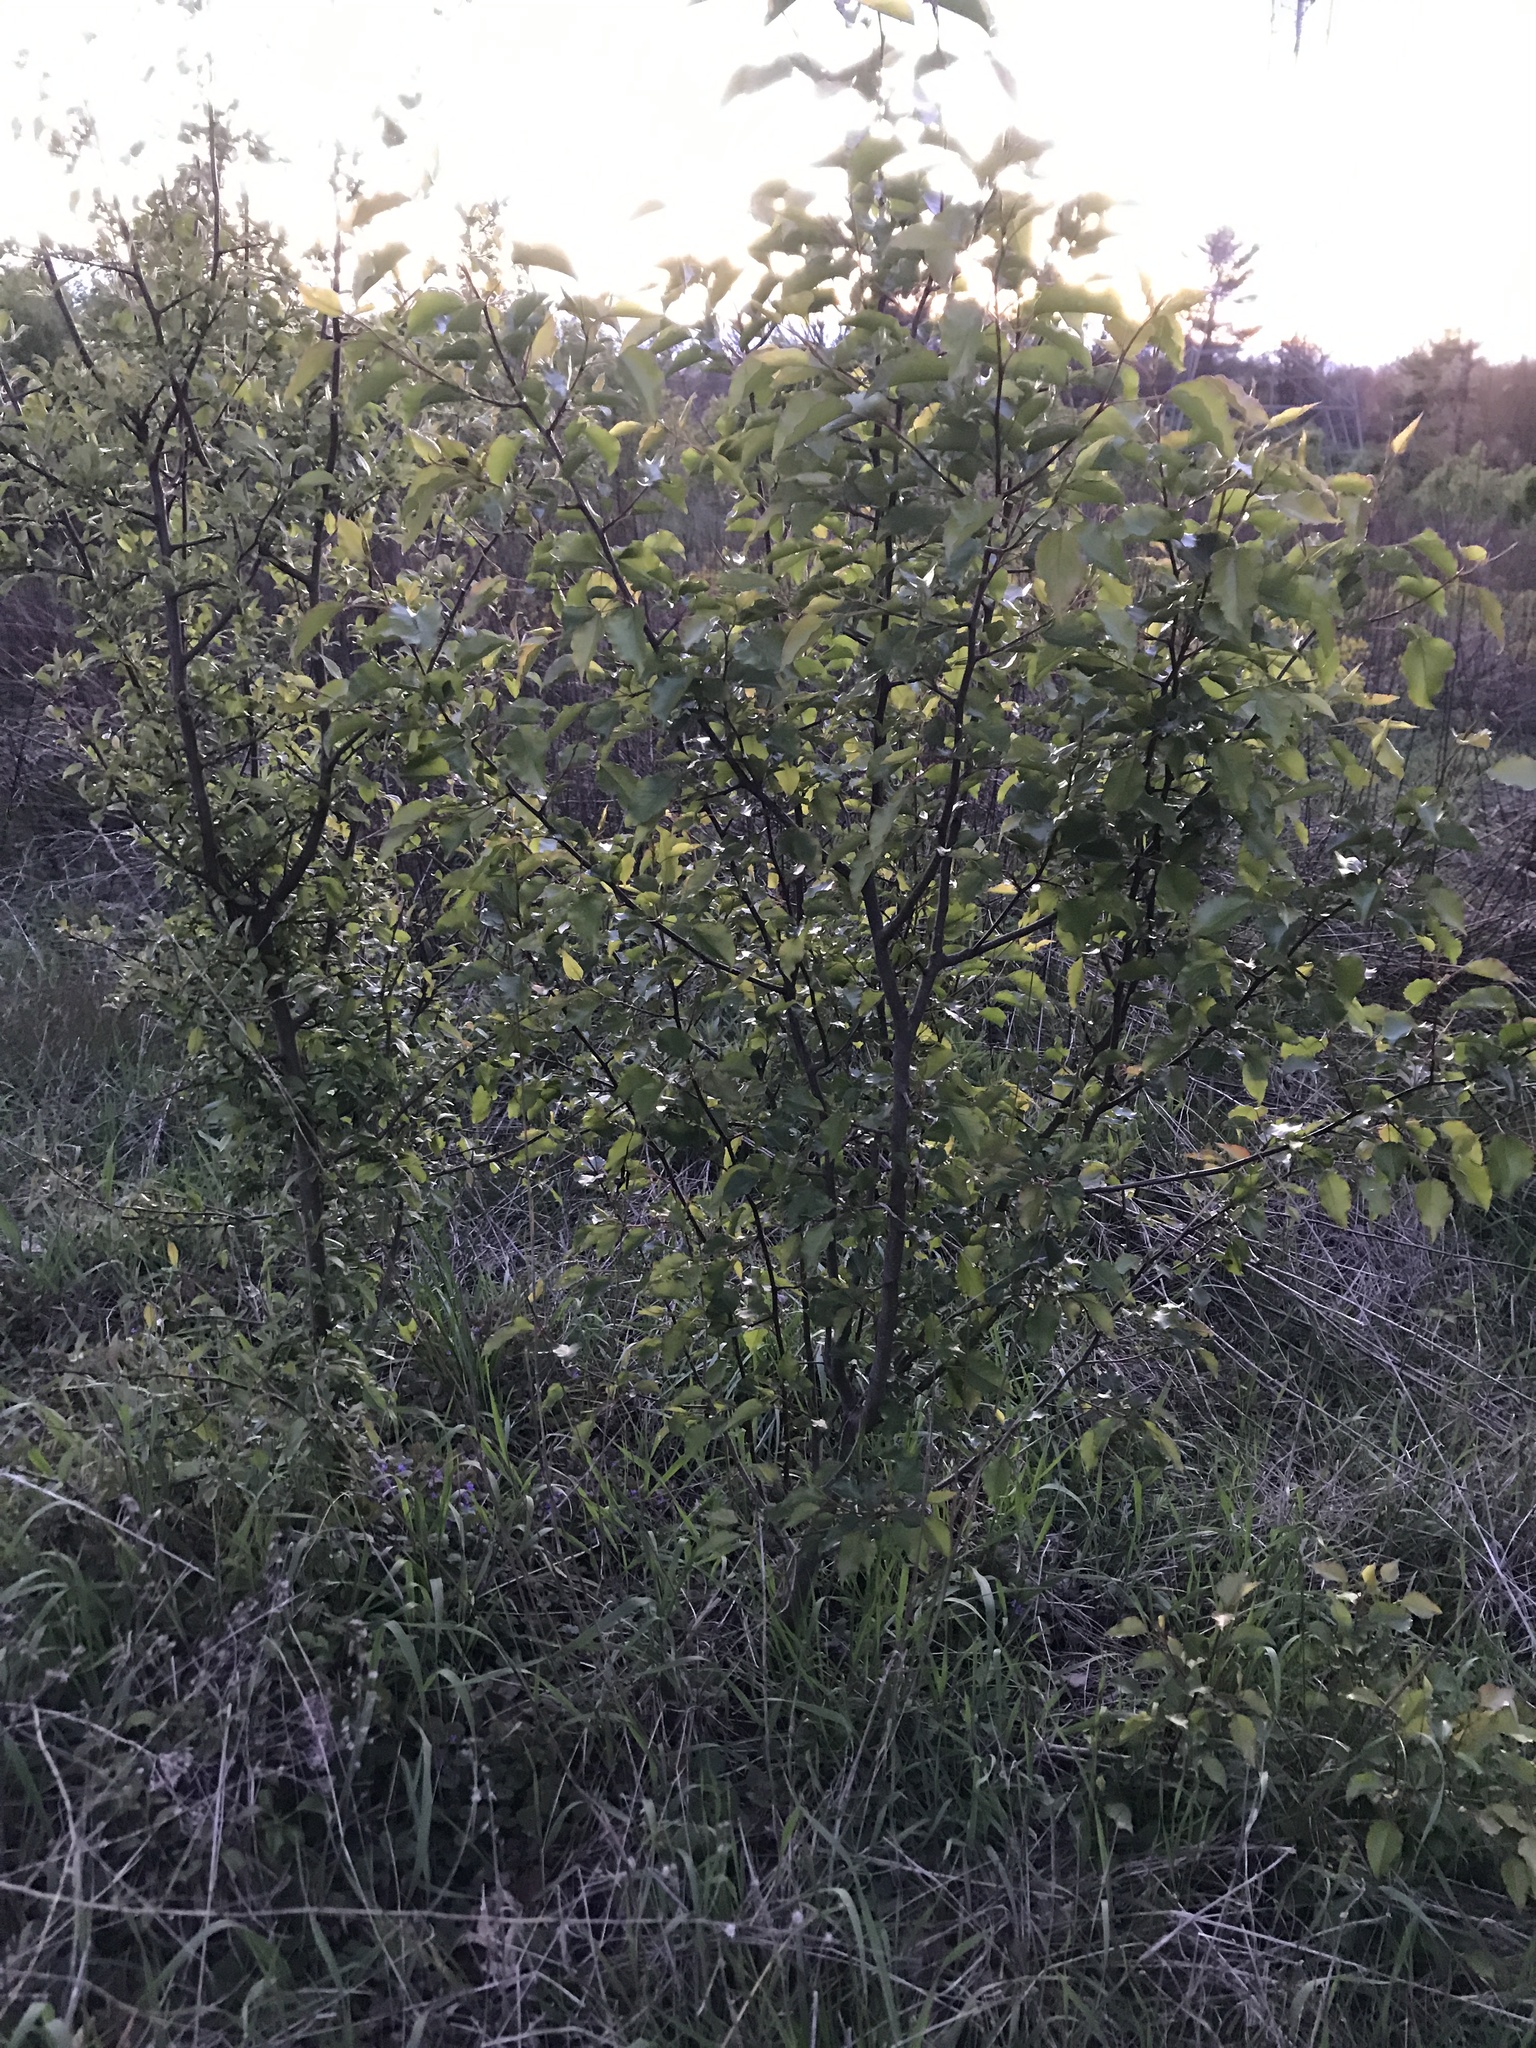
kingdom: Plantae
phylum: Tracheophyta
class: Magnoliopsida
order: Rosales
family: Rosaceae
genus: Pyrus
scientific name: Pyrus calleryana
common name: Callery pear
